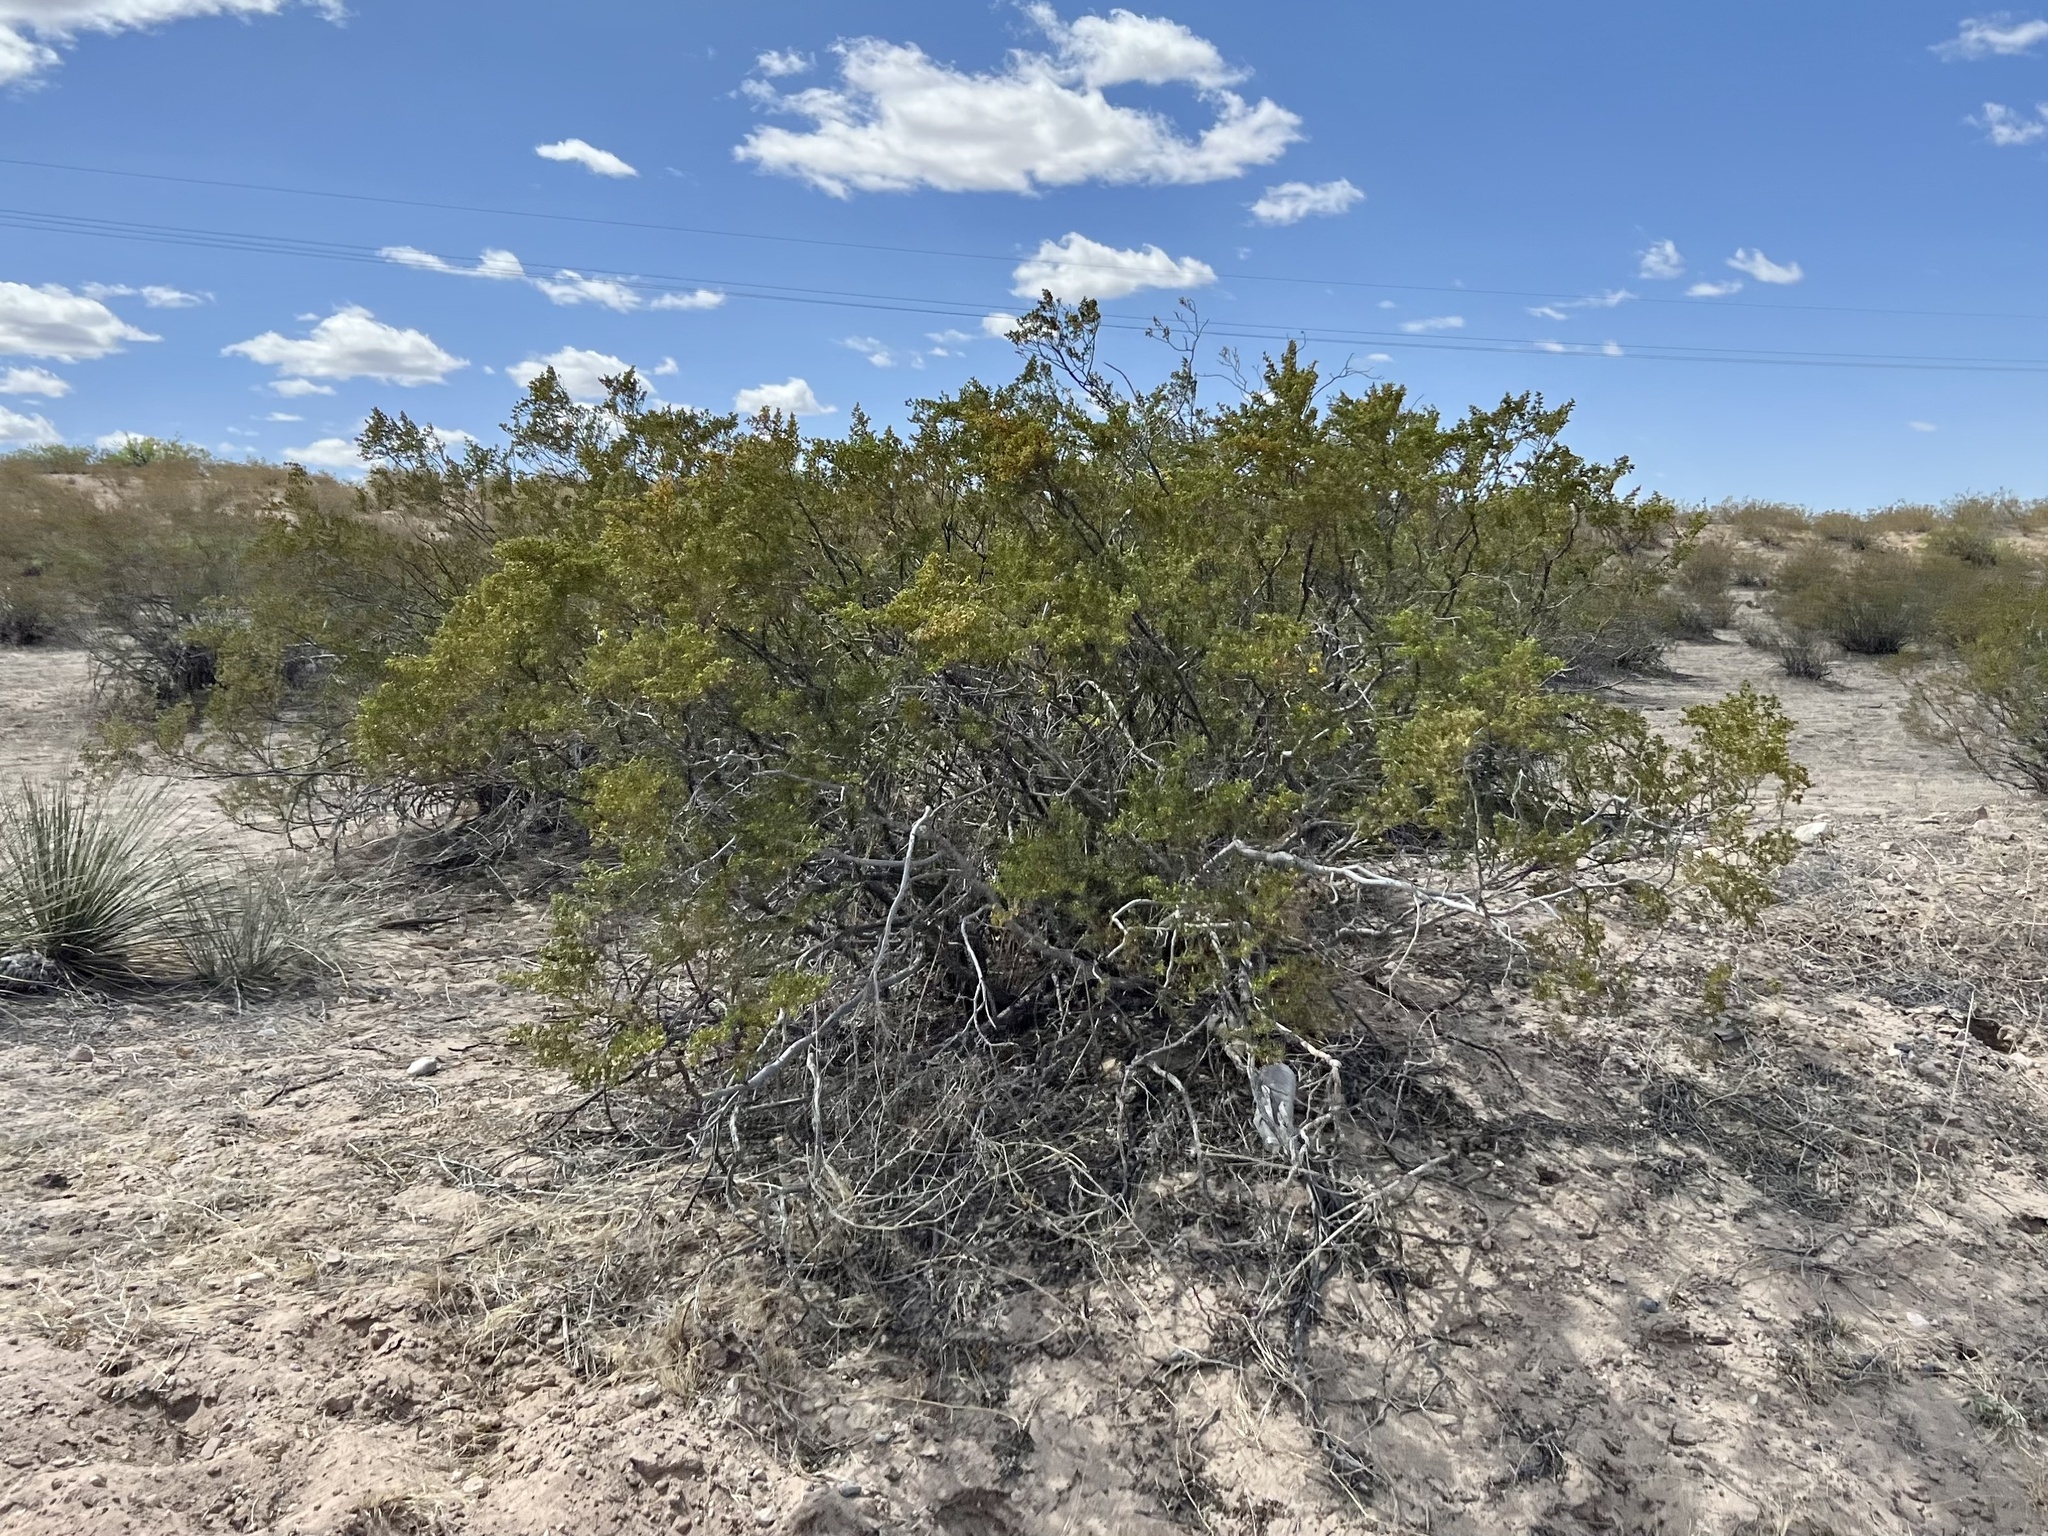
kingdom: Plantae
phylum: Tracheophyta
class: Magnoliopsida
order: Zygophyllales
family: Zygophyllaceae
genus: Larrea
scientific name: Larrea tridentata
